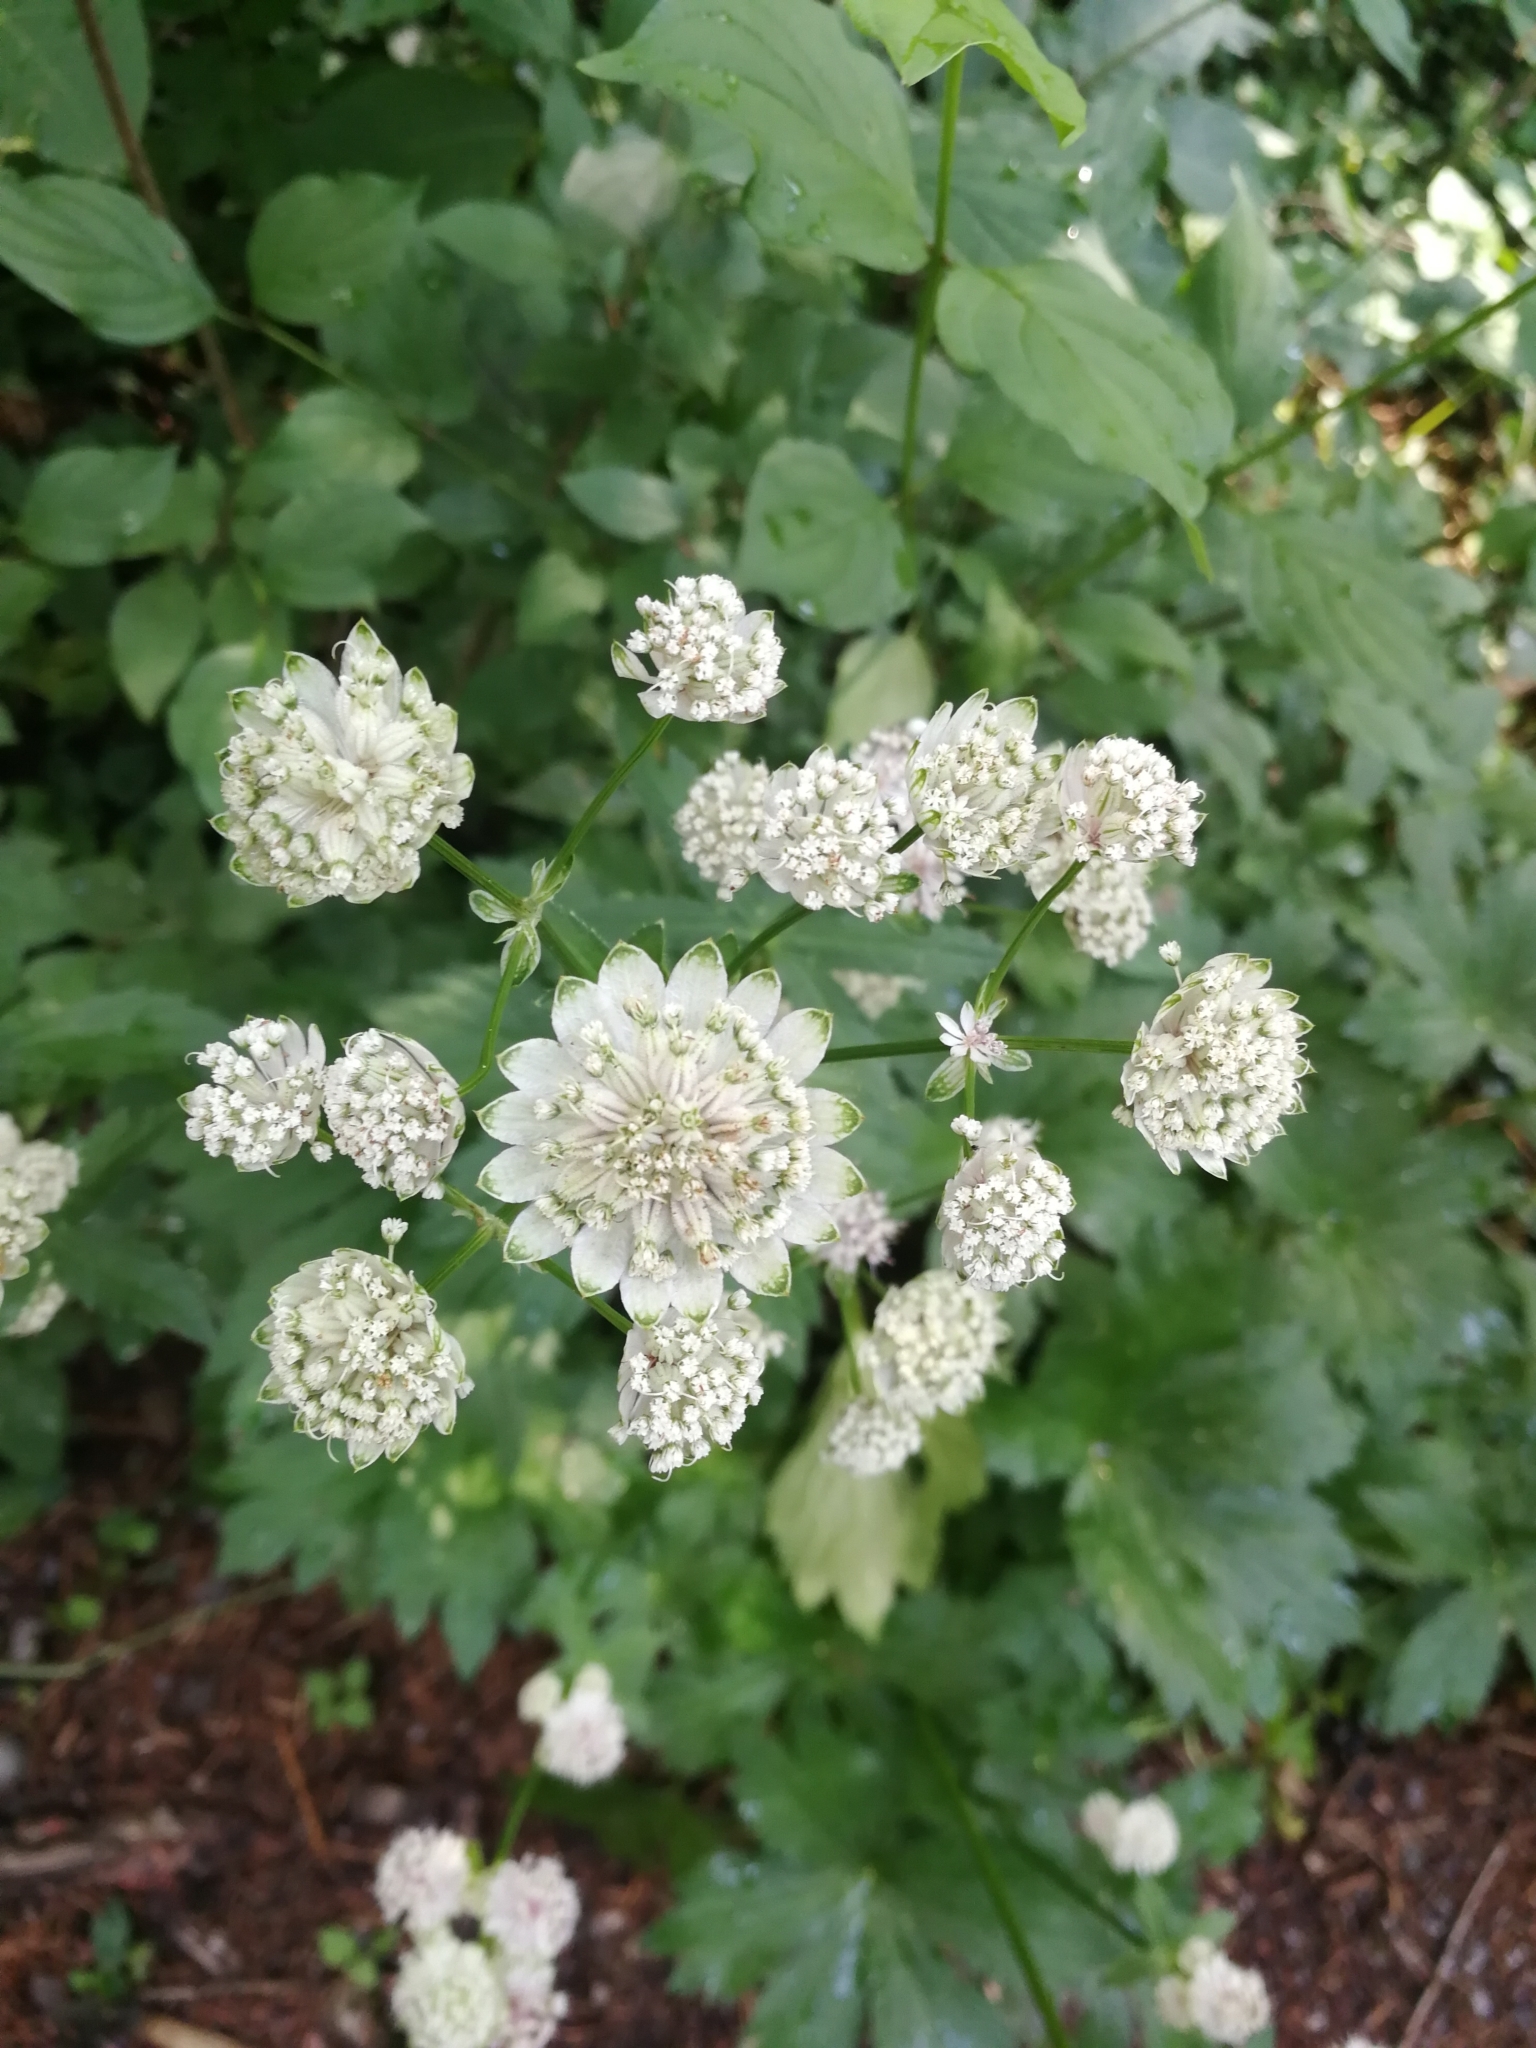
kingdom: Plantae
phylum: Tracheophyta
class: Magnoliopsida
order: Apiales
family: Apiaceae
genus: Astrantia
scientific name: Astrantia major
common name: Greater masterwort
